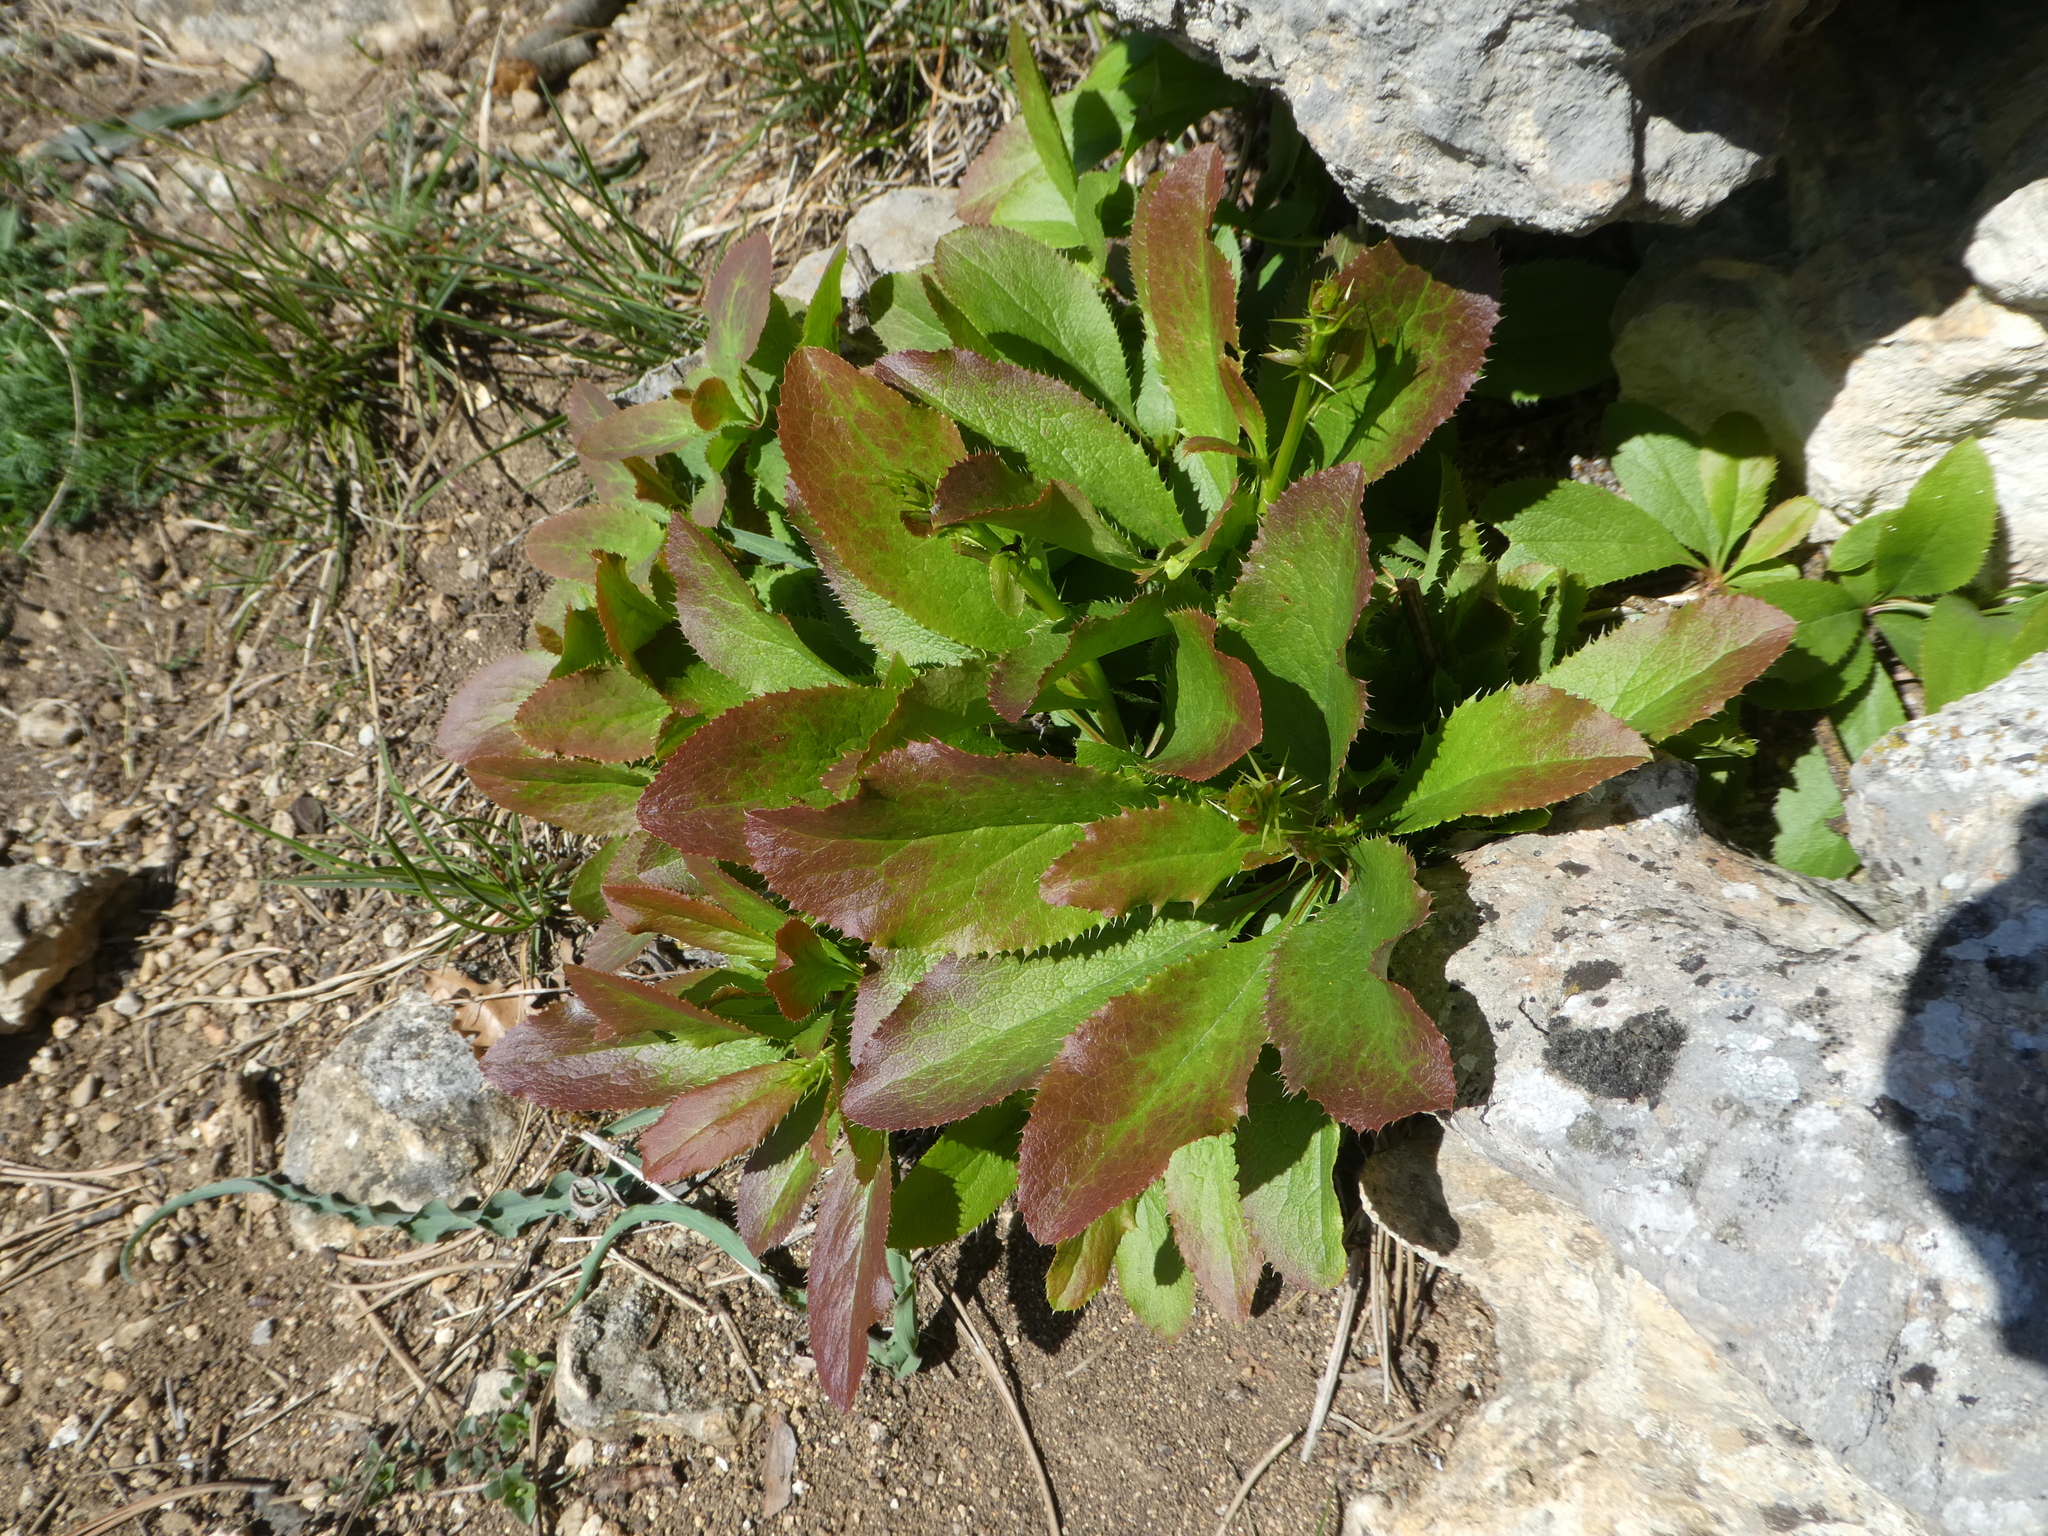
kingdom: Plantae
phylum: Tracheophyta
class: Magnoliopsida
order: Ranunculales
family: Berberidaceae
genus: Berberis
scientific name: Berberis vulgaris
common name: Barberry
